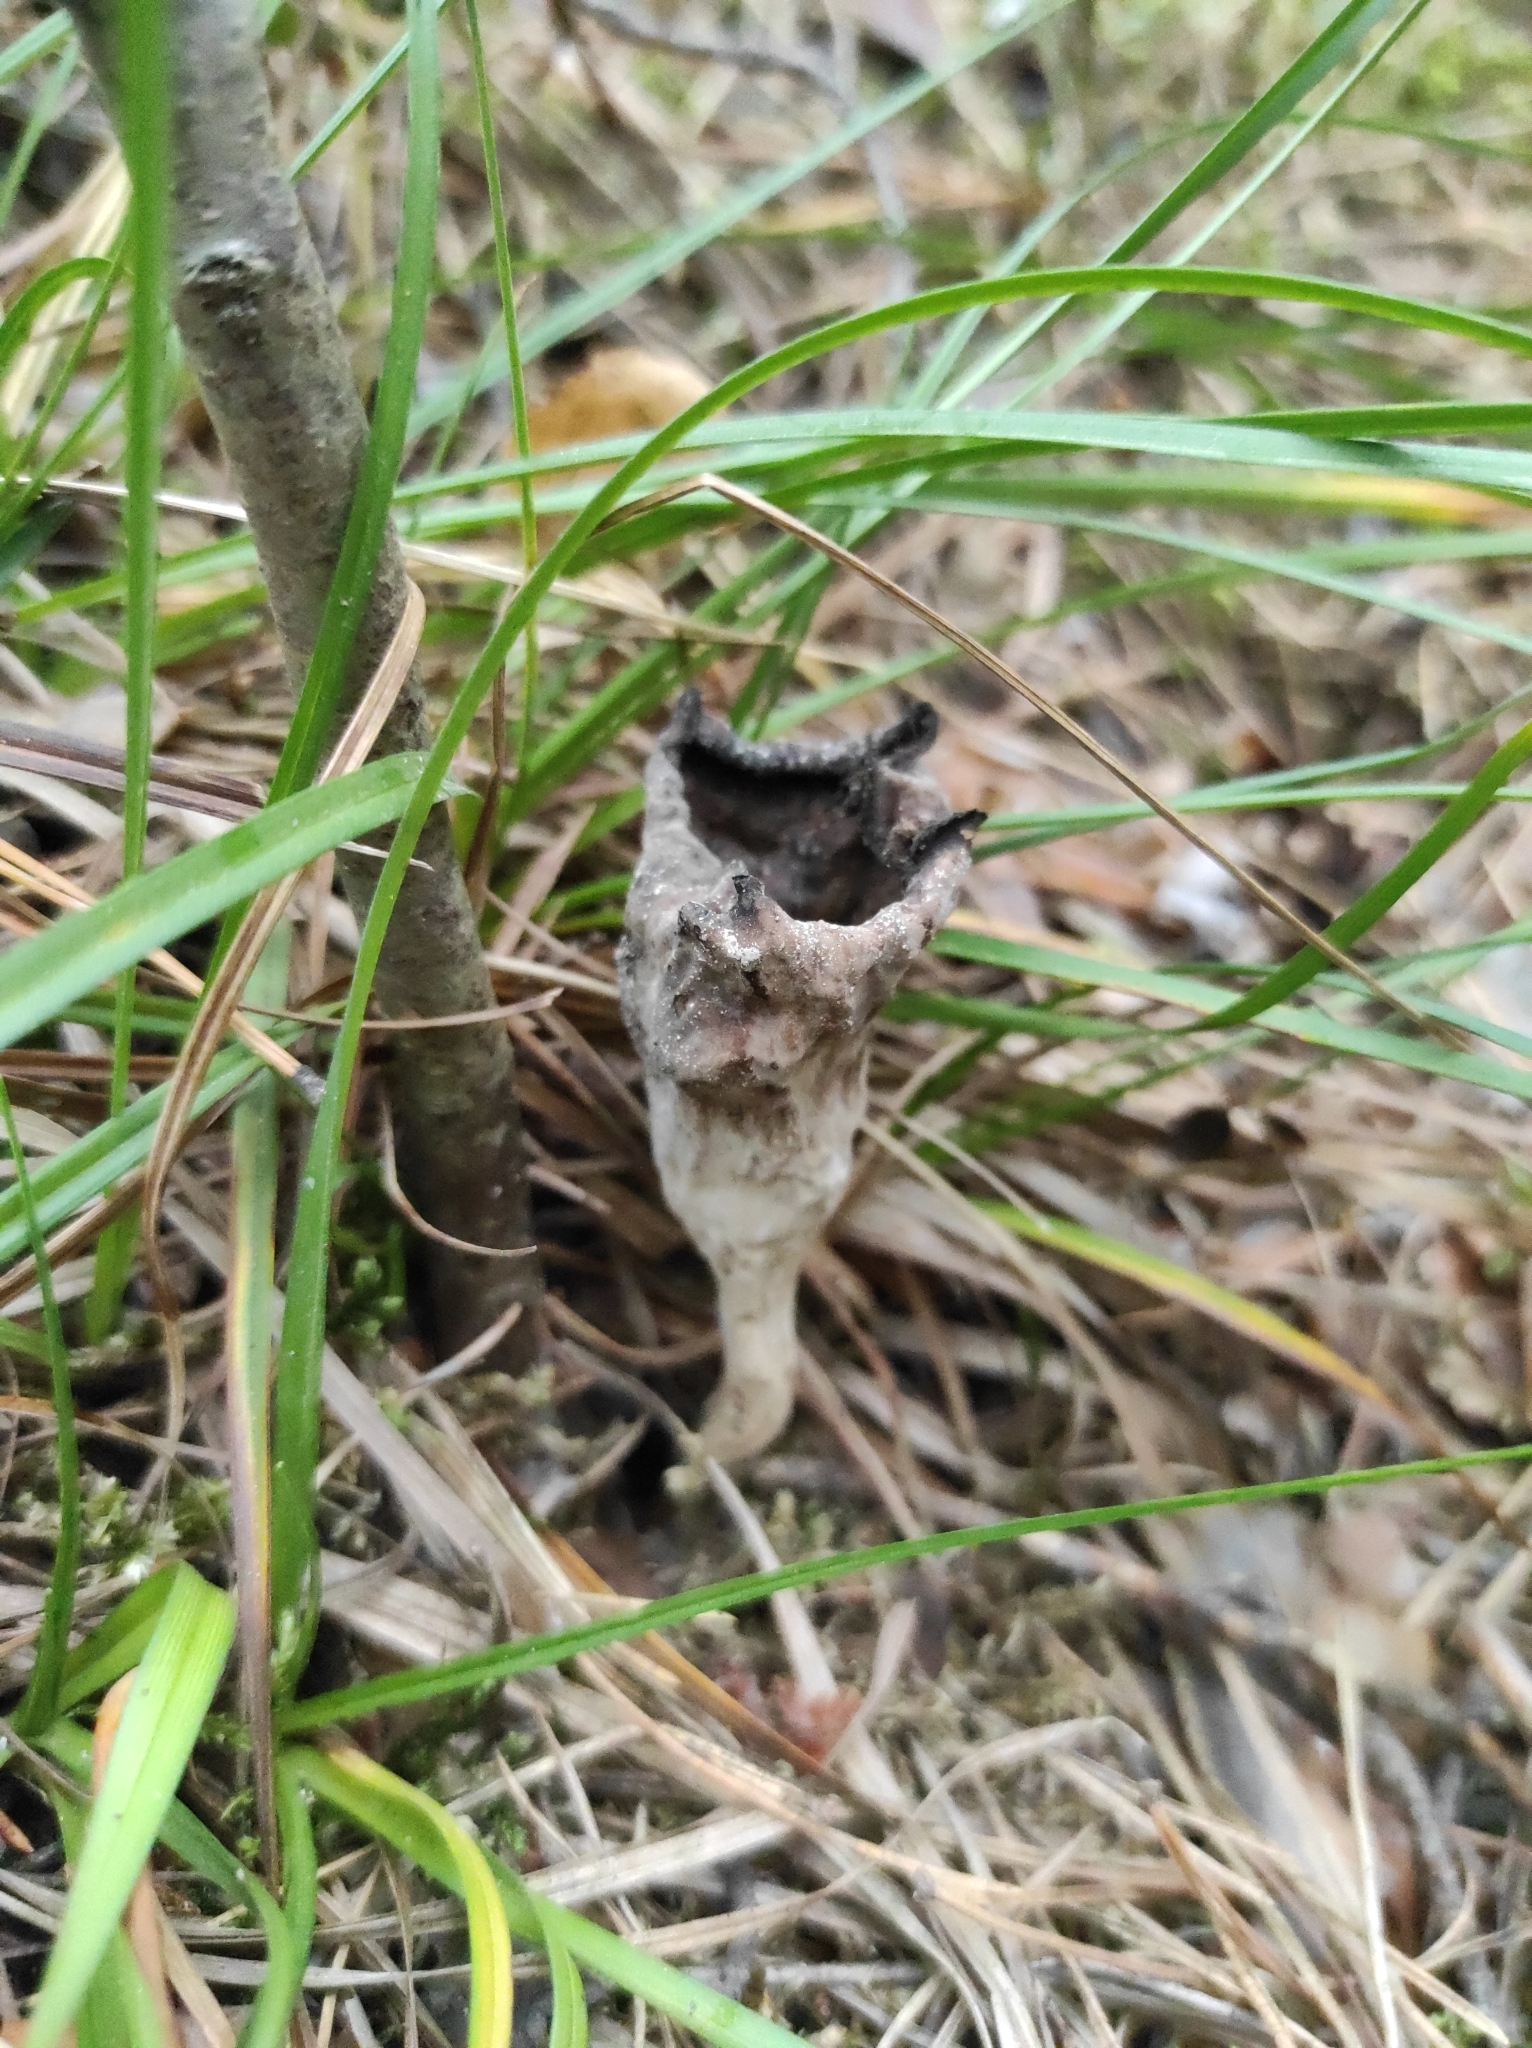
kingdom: Fungi
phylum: Basidiomycota
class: Agaricomycetes
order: Cantharellales
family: Hydnaceae
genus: Craterellus
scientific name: Craterellus cornucopioides
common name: Horn of plenty
